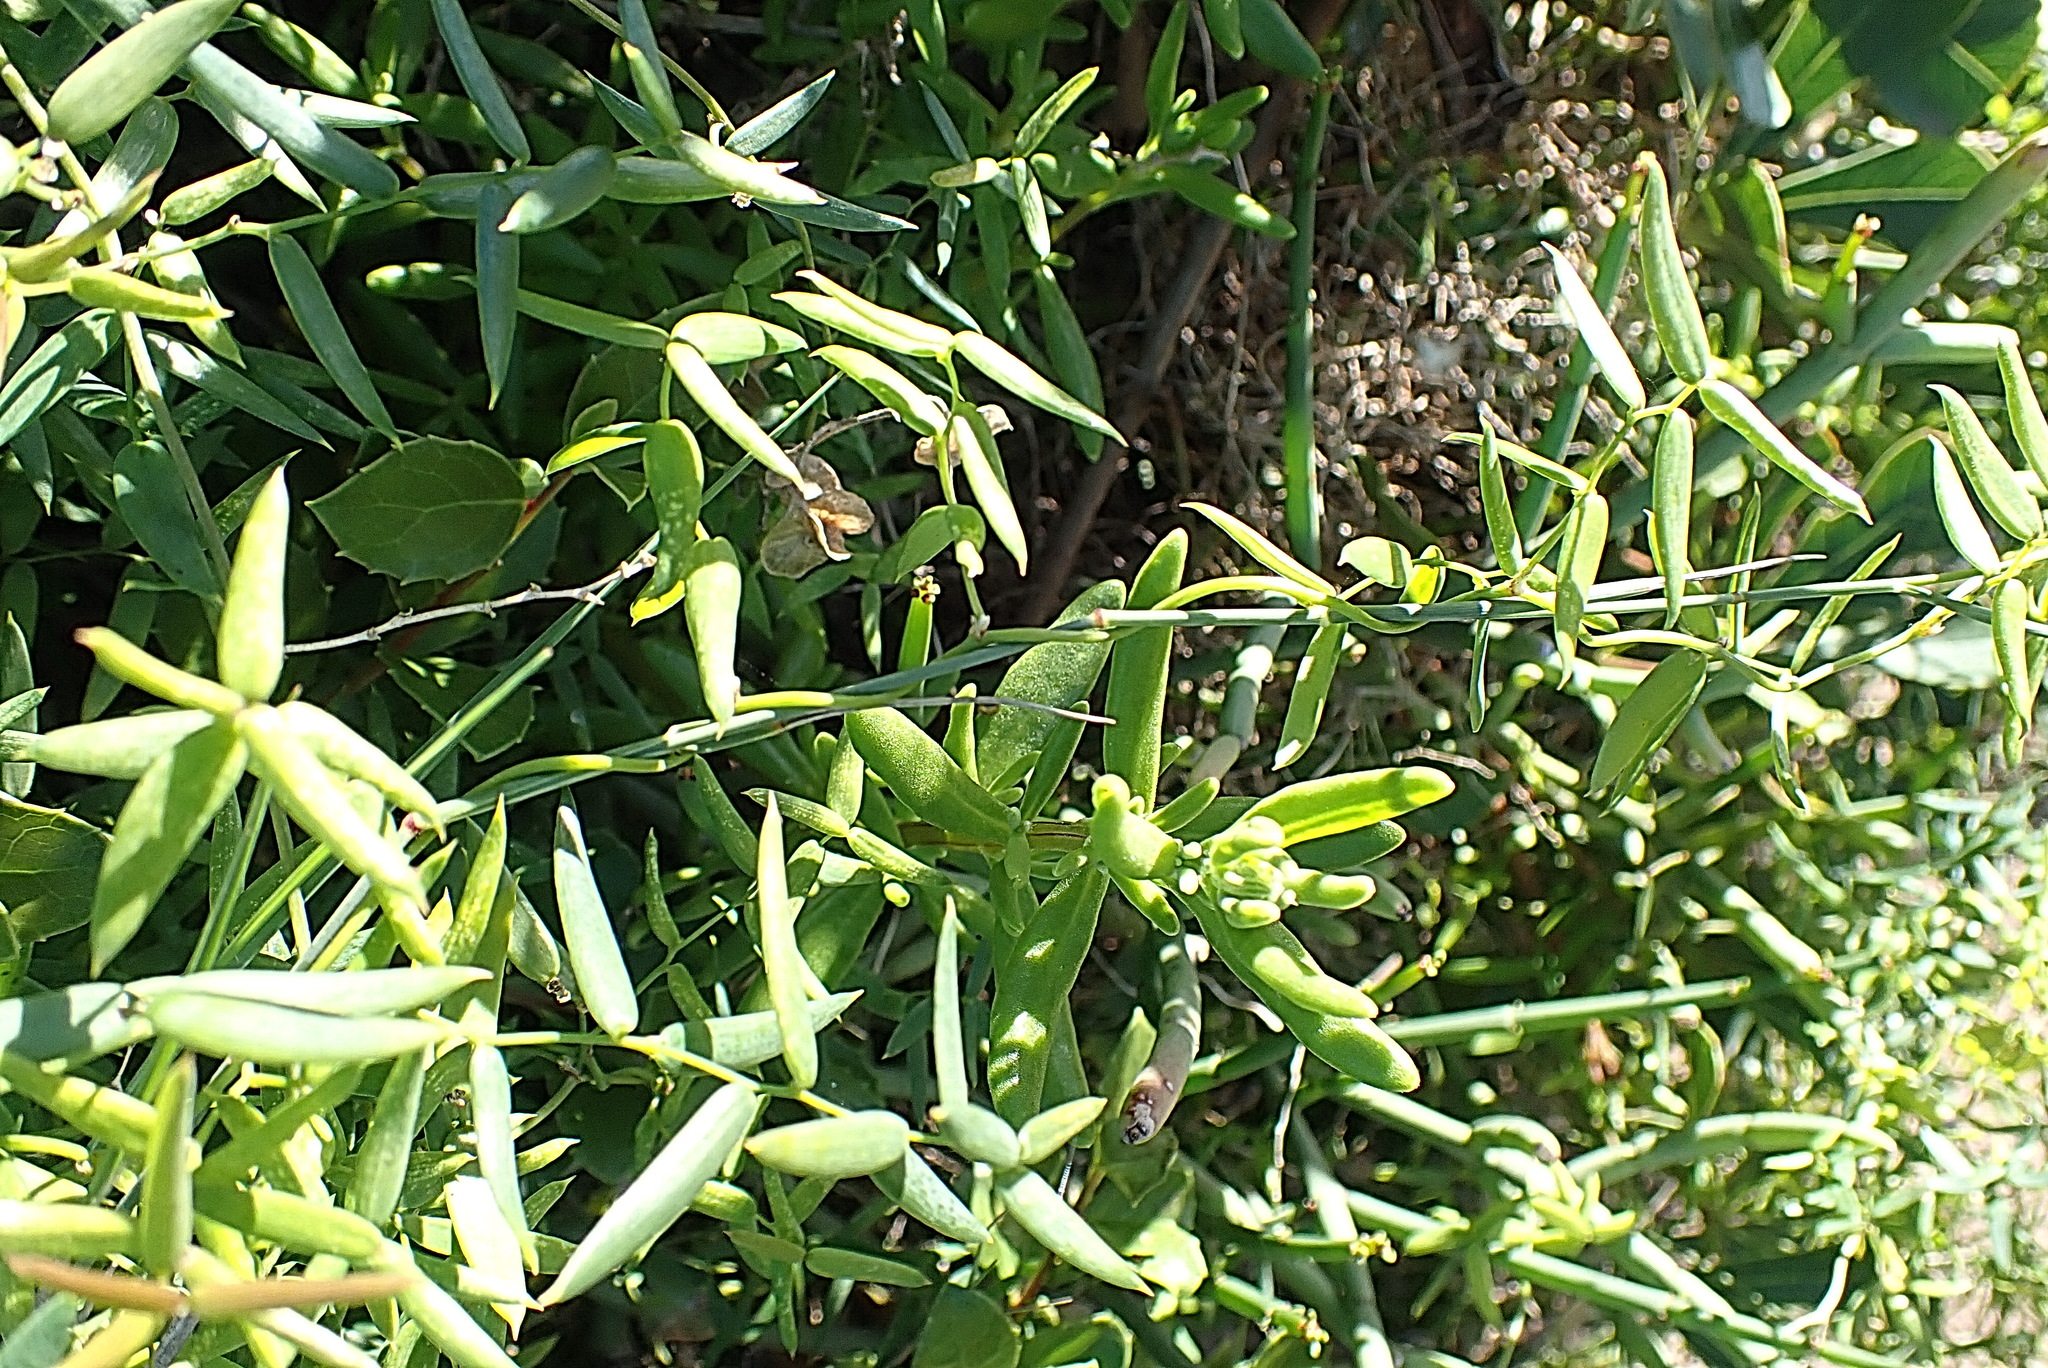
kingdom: Plantae
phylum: Tracheophyta
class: Liliopsida
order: Asparagales
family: Asparagaceae
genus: Asparagus
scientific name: Asparagus volubilis
